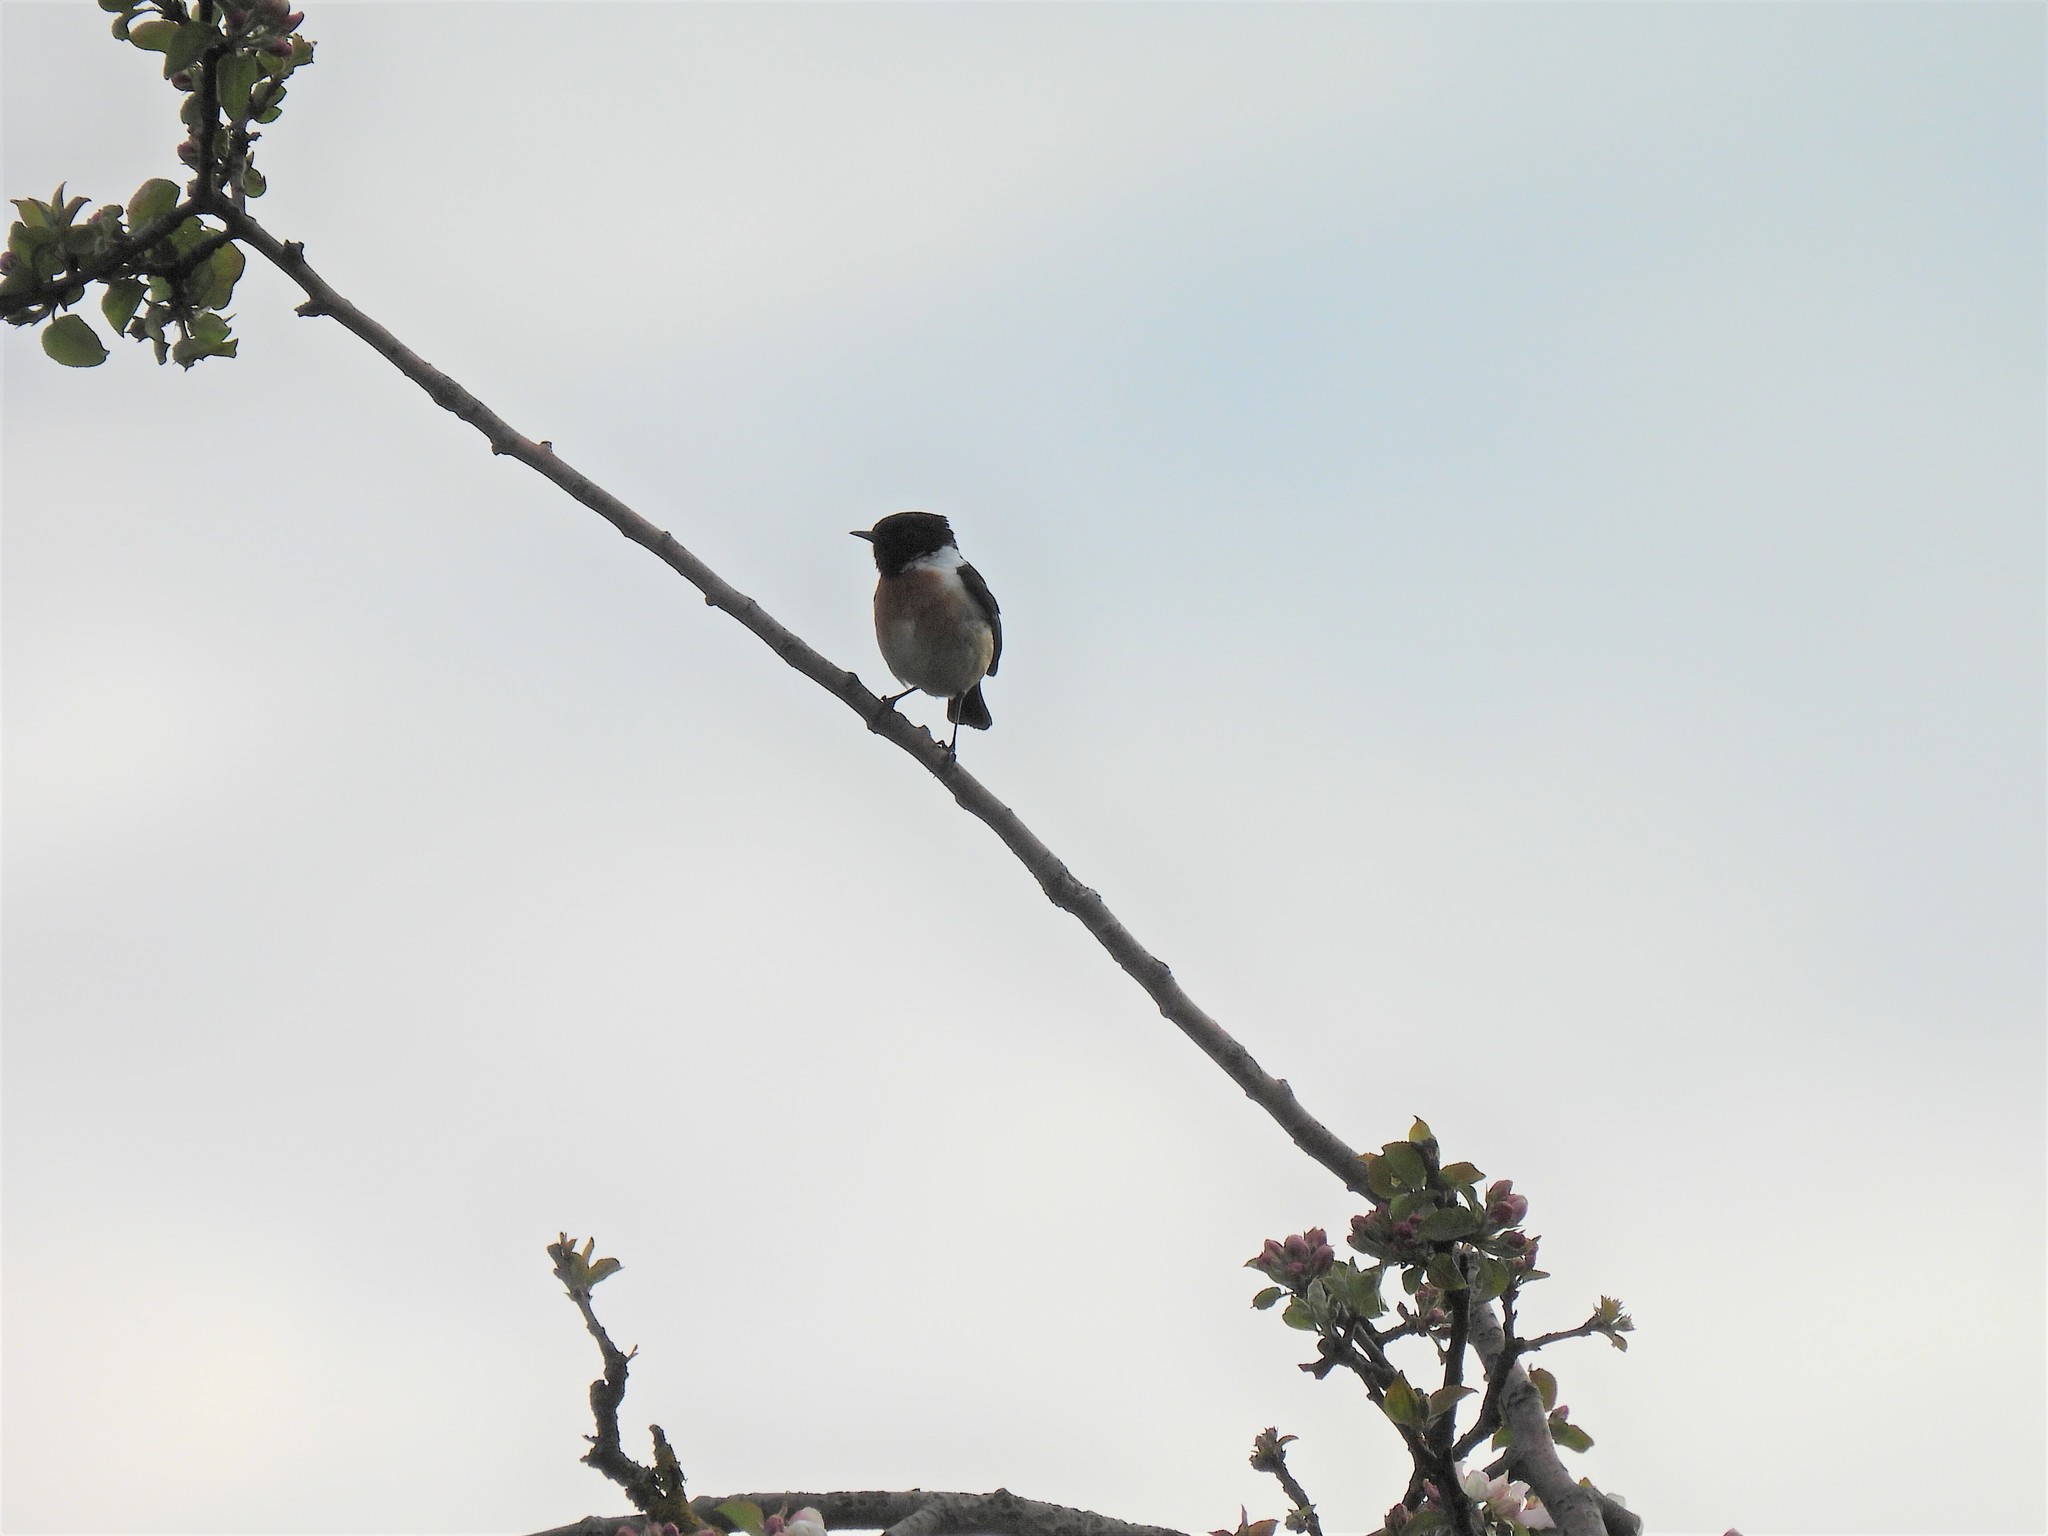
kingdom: Animalia
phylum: Chordata
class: Aves
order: Passeriformes
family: Muscicapidae
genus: Saxicola
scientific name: Saxicola rubicola
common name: European stonechat
